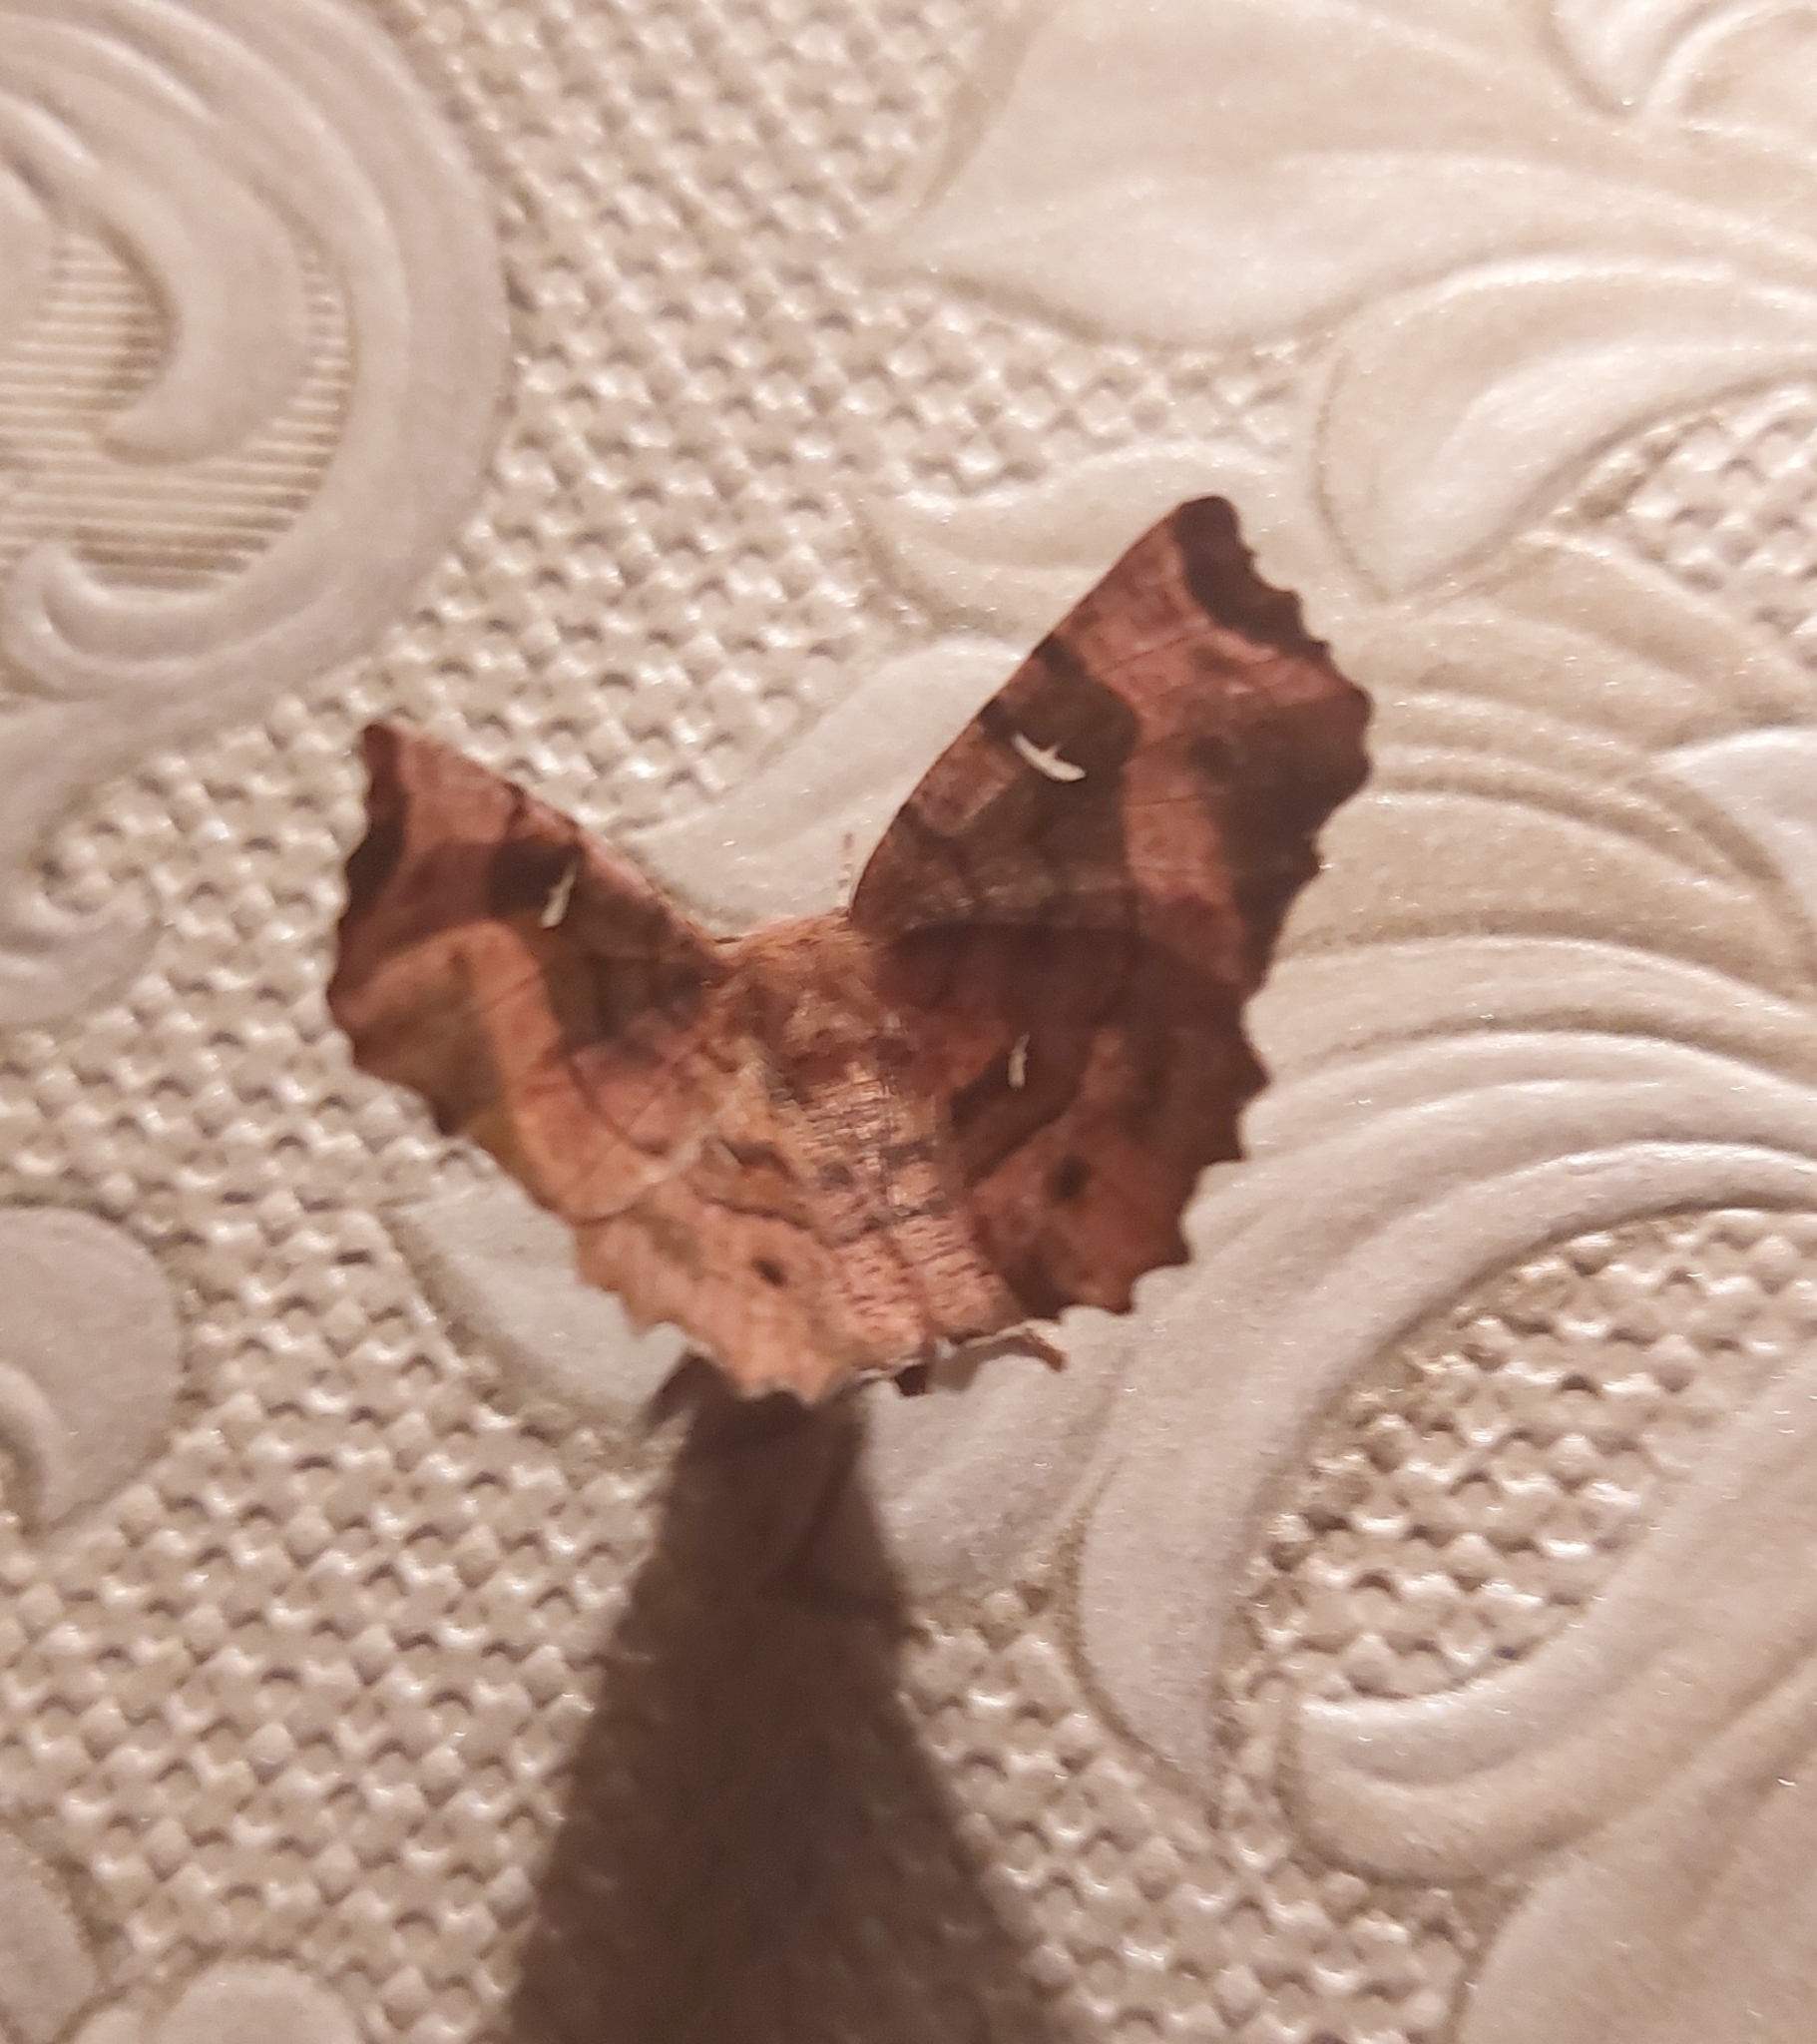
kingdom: Animalia
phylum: Arthropoda
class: Insecta
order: Lepidoptera
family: Geometridae
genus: Selenia
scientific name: Selenia tetralunaria
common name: Purple thorn
